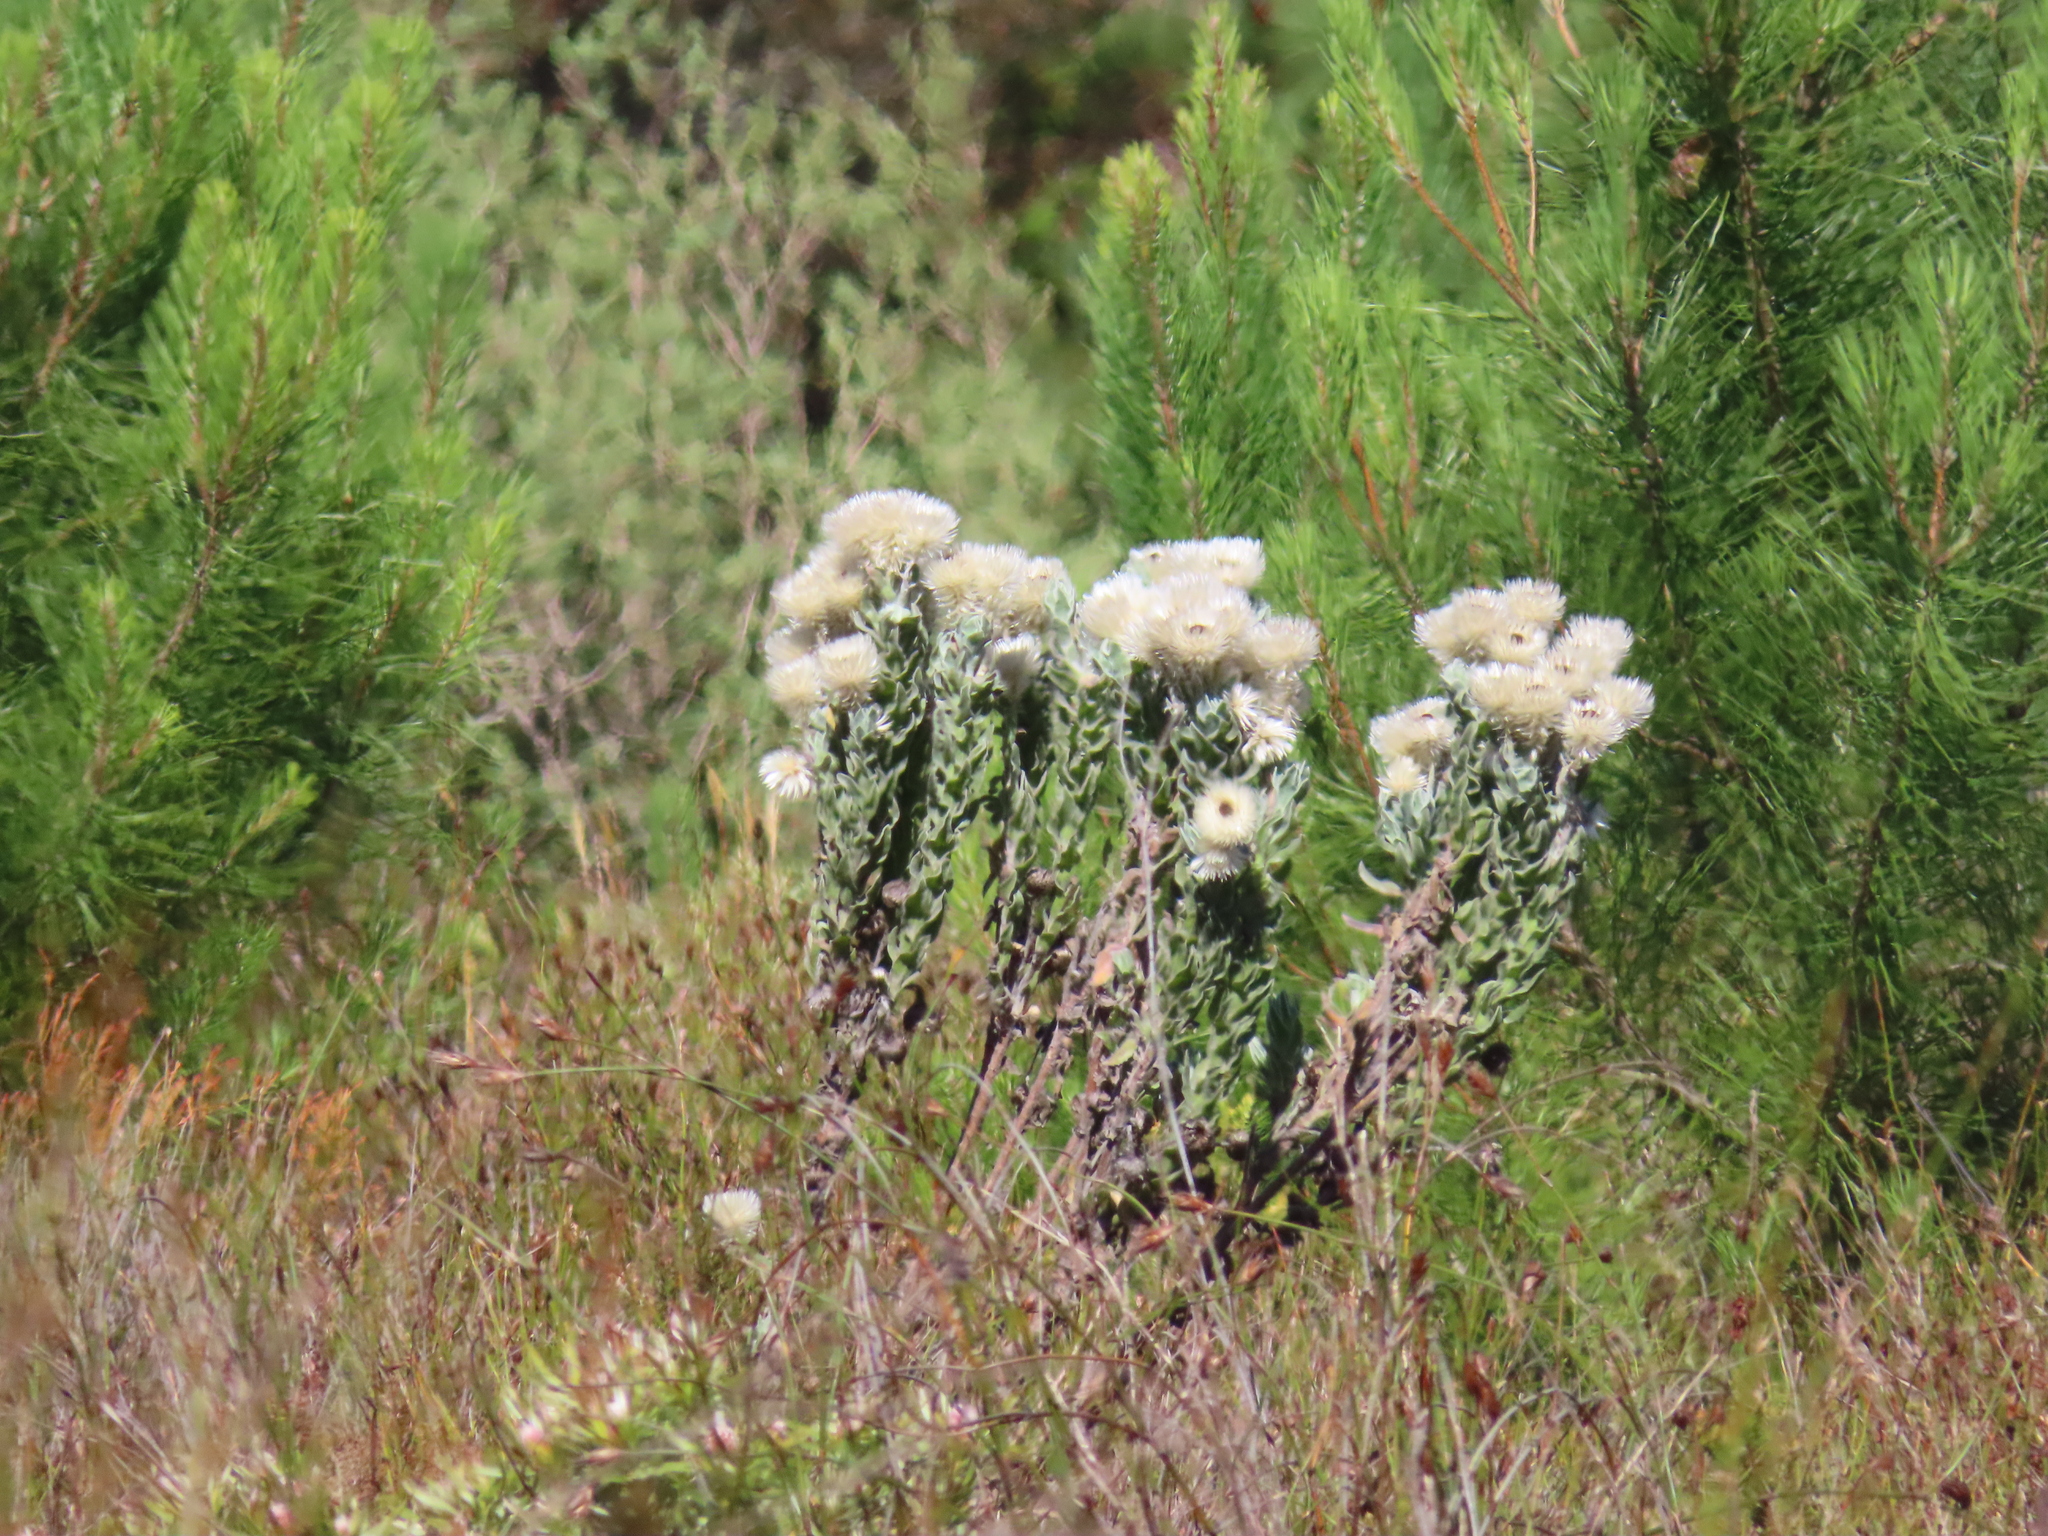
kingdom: Plantae
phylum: Tracheophyta
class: Magnoliopsida
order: Asterales
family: Asteraceae
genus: Syncarpha
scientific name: Syncarpha vestita
